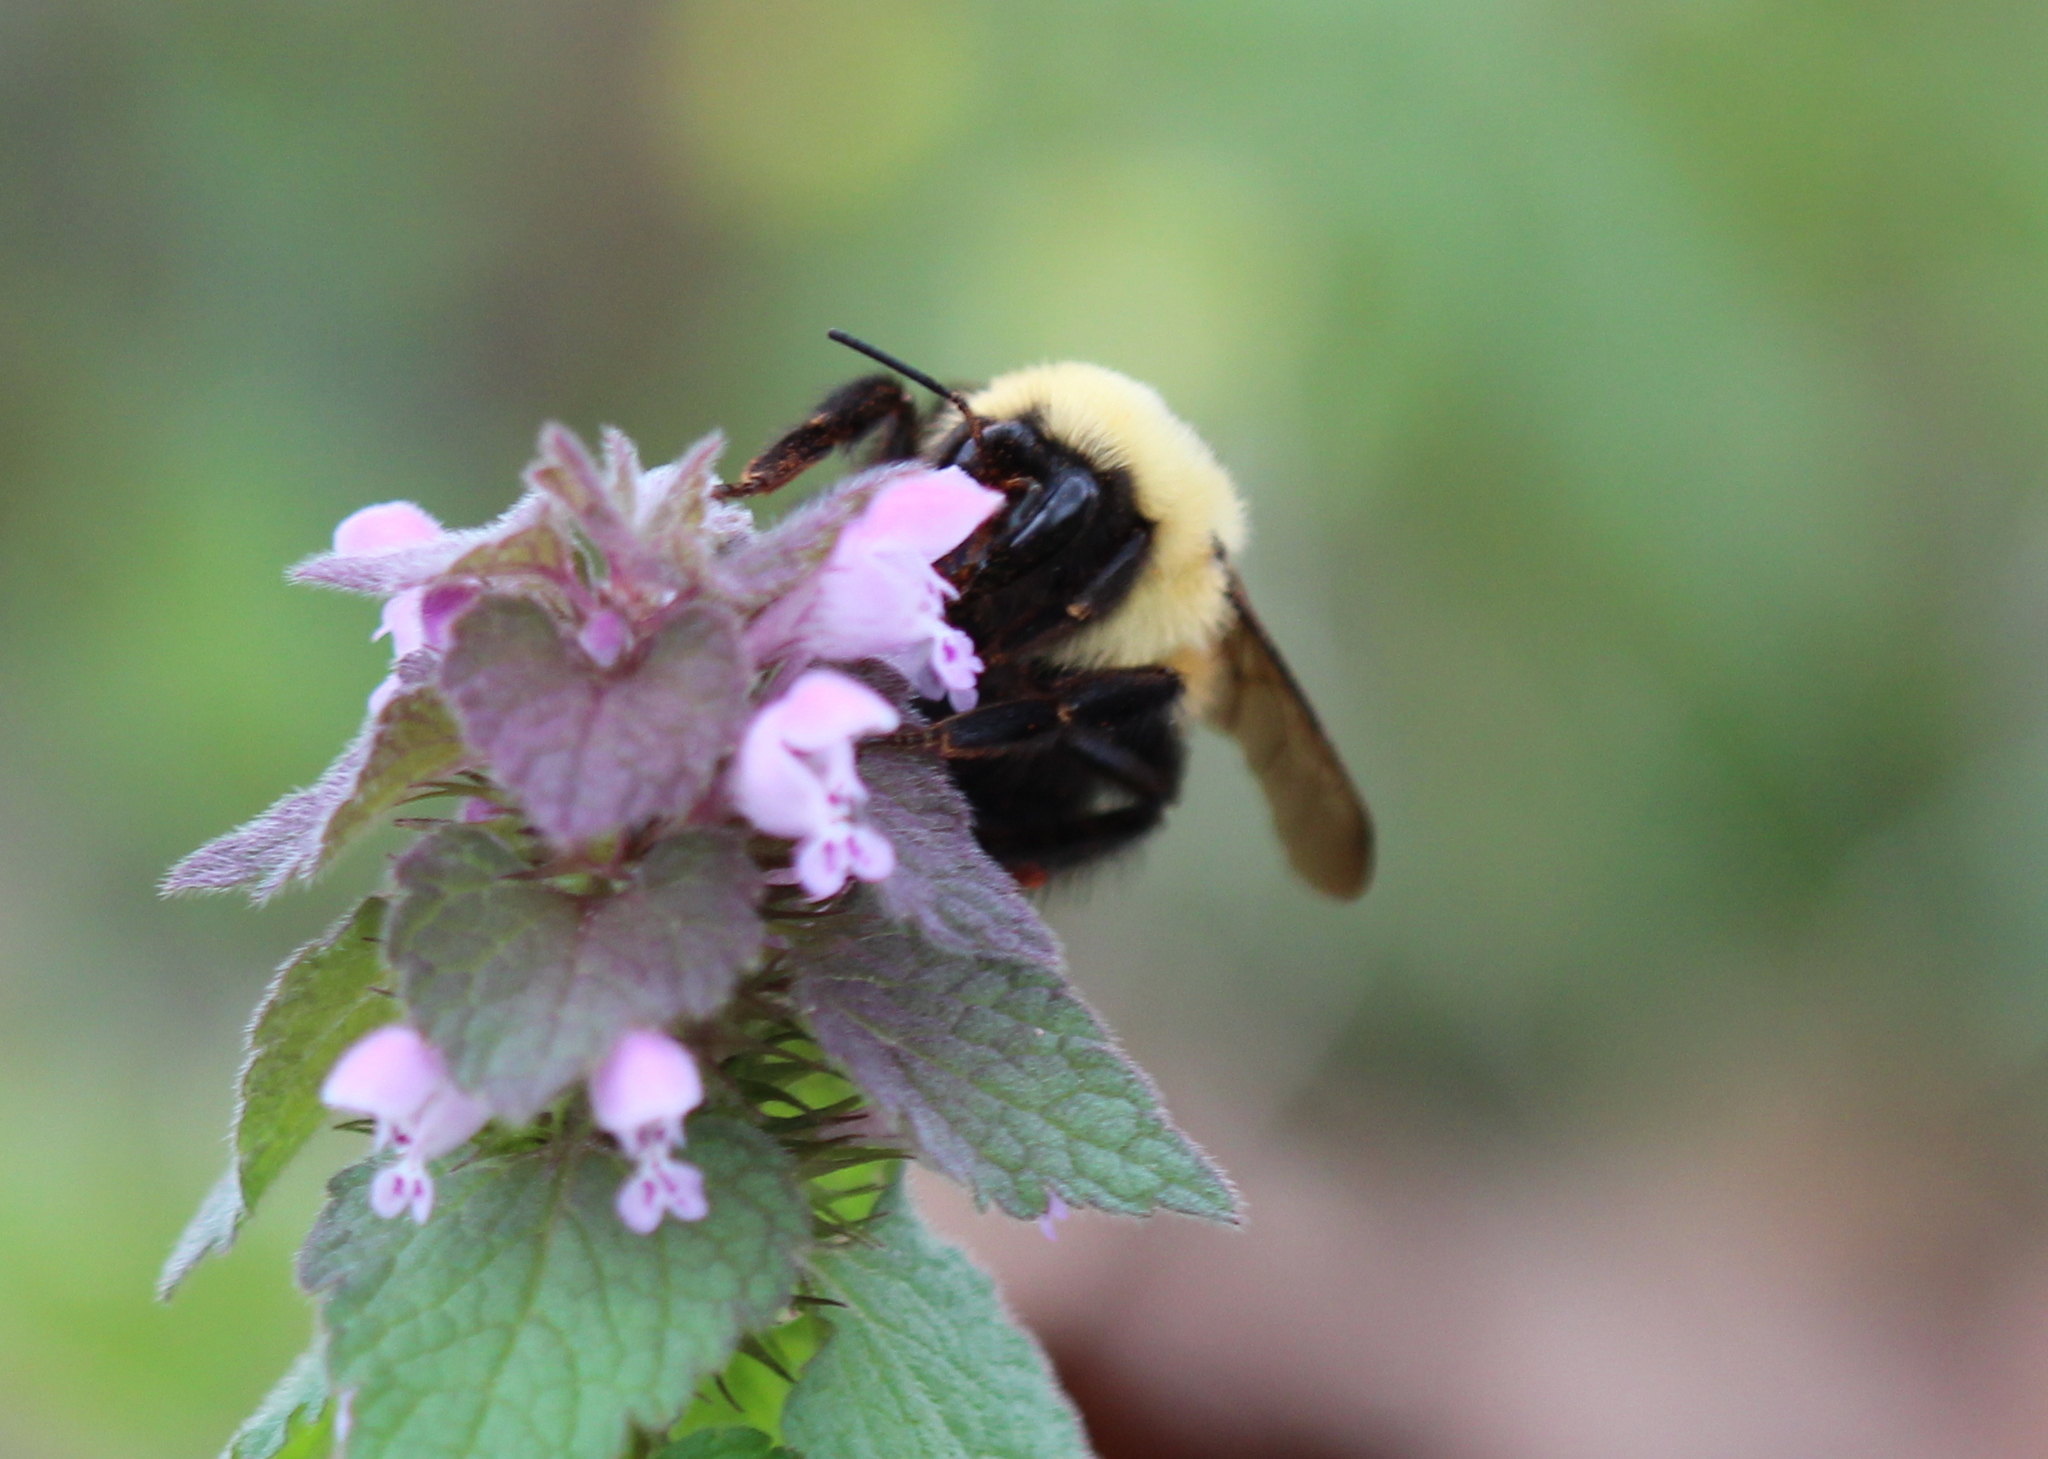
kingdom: Animalia
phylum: Arthropoda
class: Insecta
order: Hymenoptera
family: Apidae
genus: Bombus
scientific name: Bombus bimaculatus
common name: Two-spotted bumble bee
